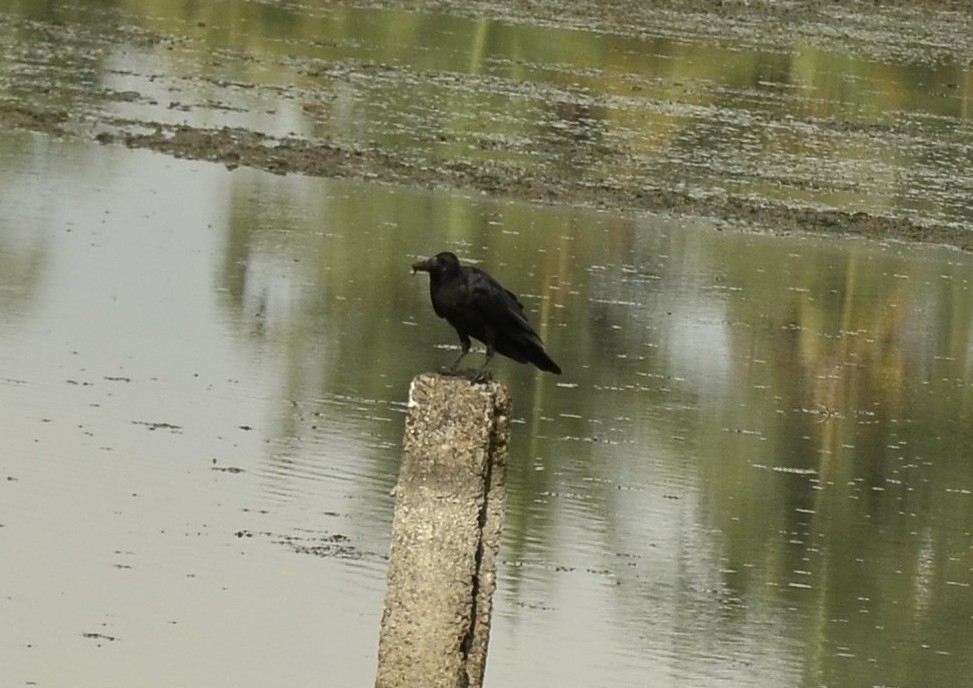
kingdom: Animalia
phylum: Chordata
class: Aves
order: Passeriformes
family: Corvidae
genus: Corvus
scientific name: Corvus macrorhynchos
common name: Large-billed crow
